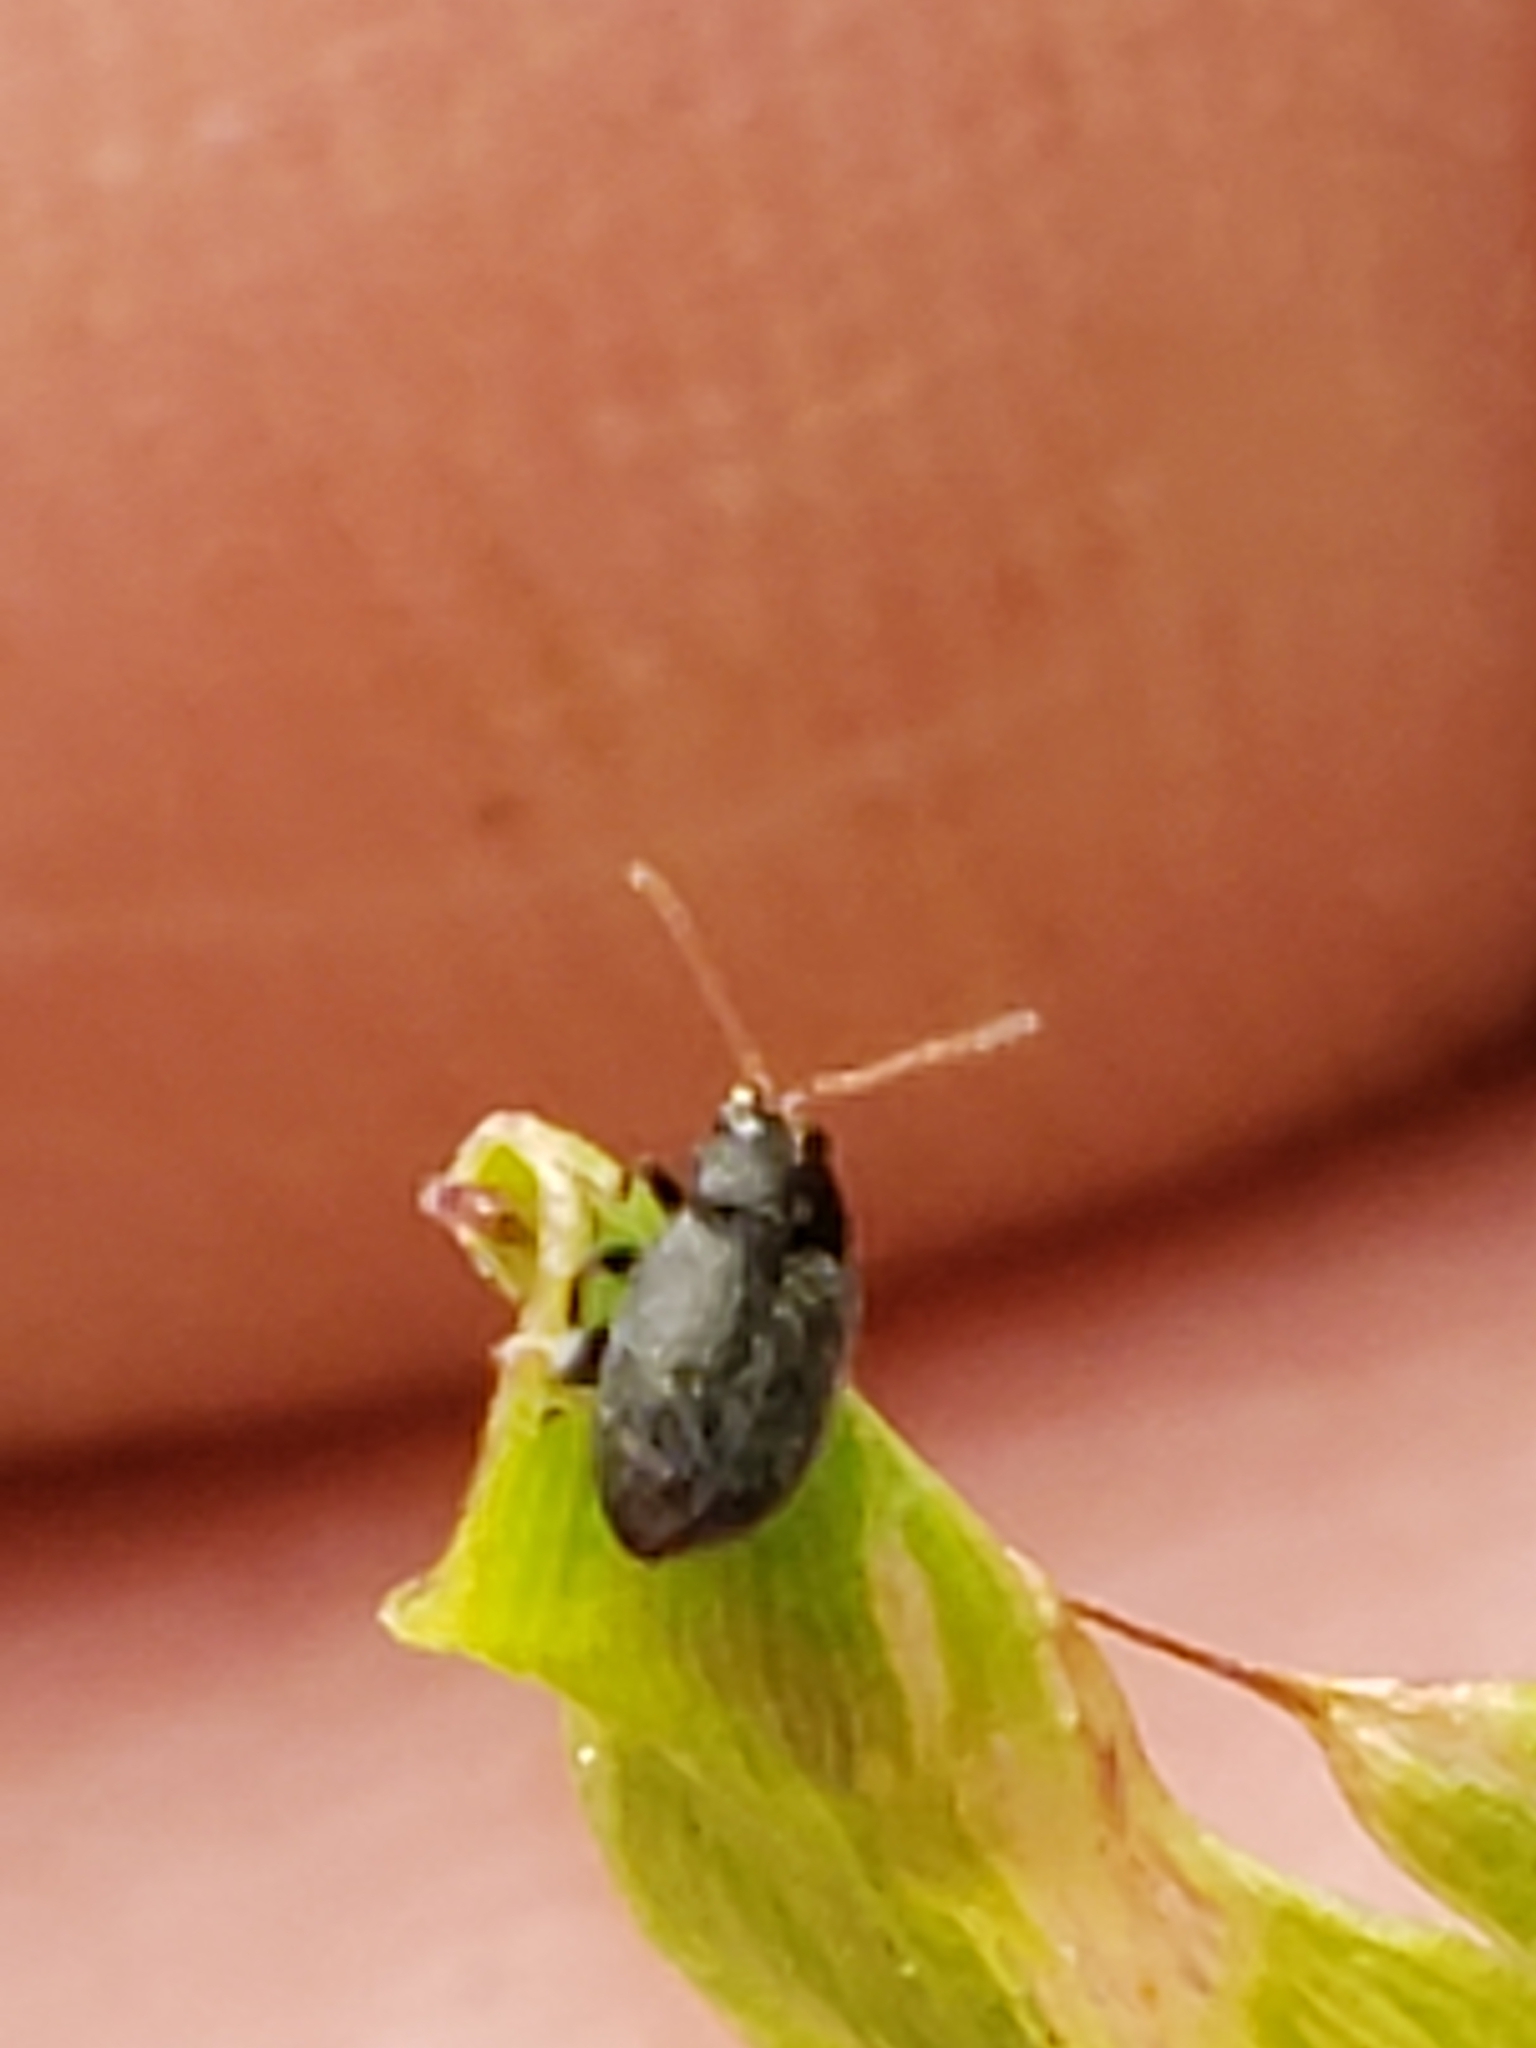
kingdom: Animalia
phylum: Arthropoda
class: Insecta
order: Coleoptera
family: Chrysomelidae
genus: Epitrix
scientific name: Epitrix fuscula
